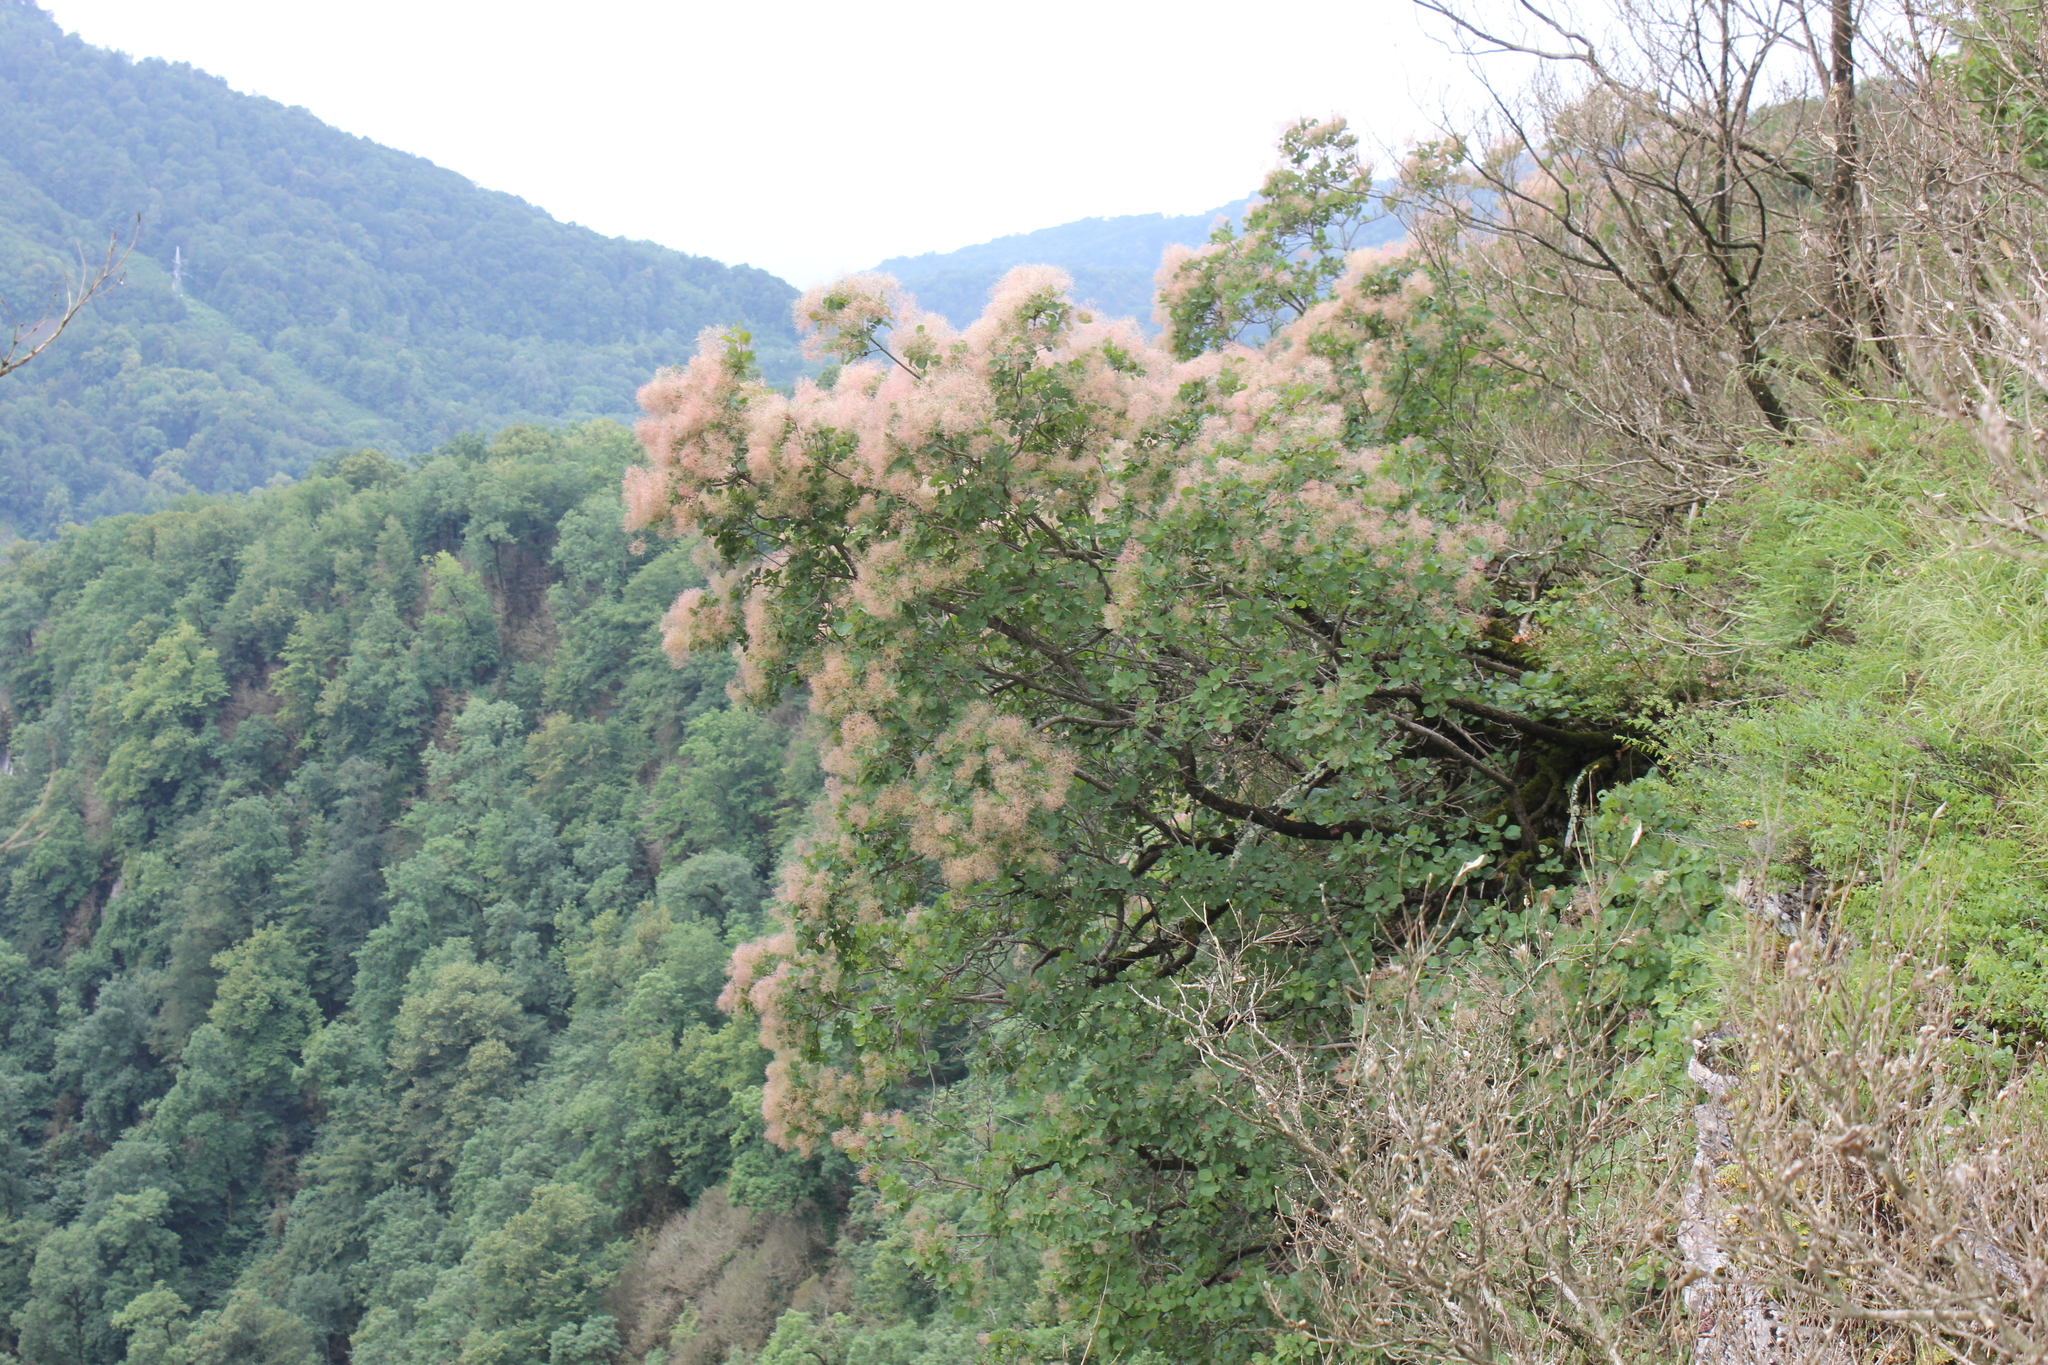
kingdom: Plantae
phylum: Tracheophyta
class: Magnoliopsida
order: Sapindales
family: Anacardiaceae
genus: Cotinus
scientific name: Cotinus coggygria
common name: Smoke-tree
